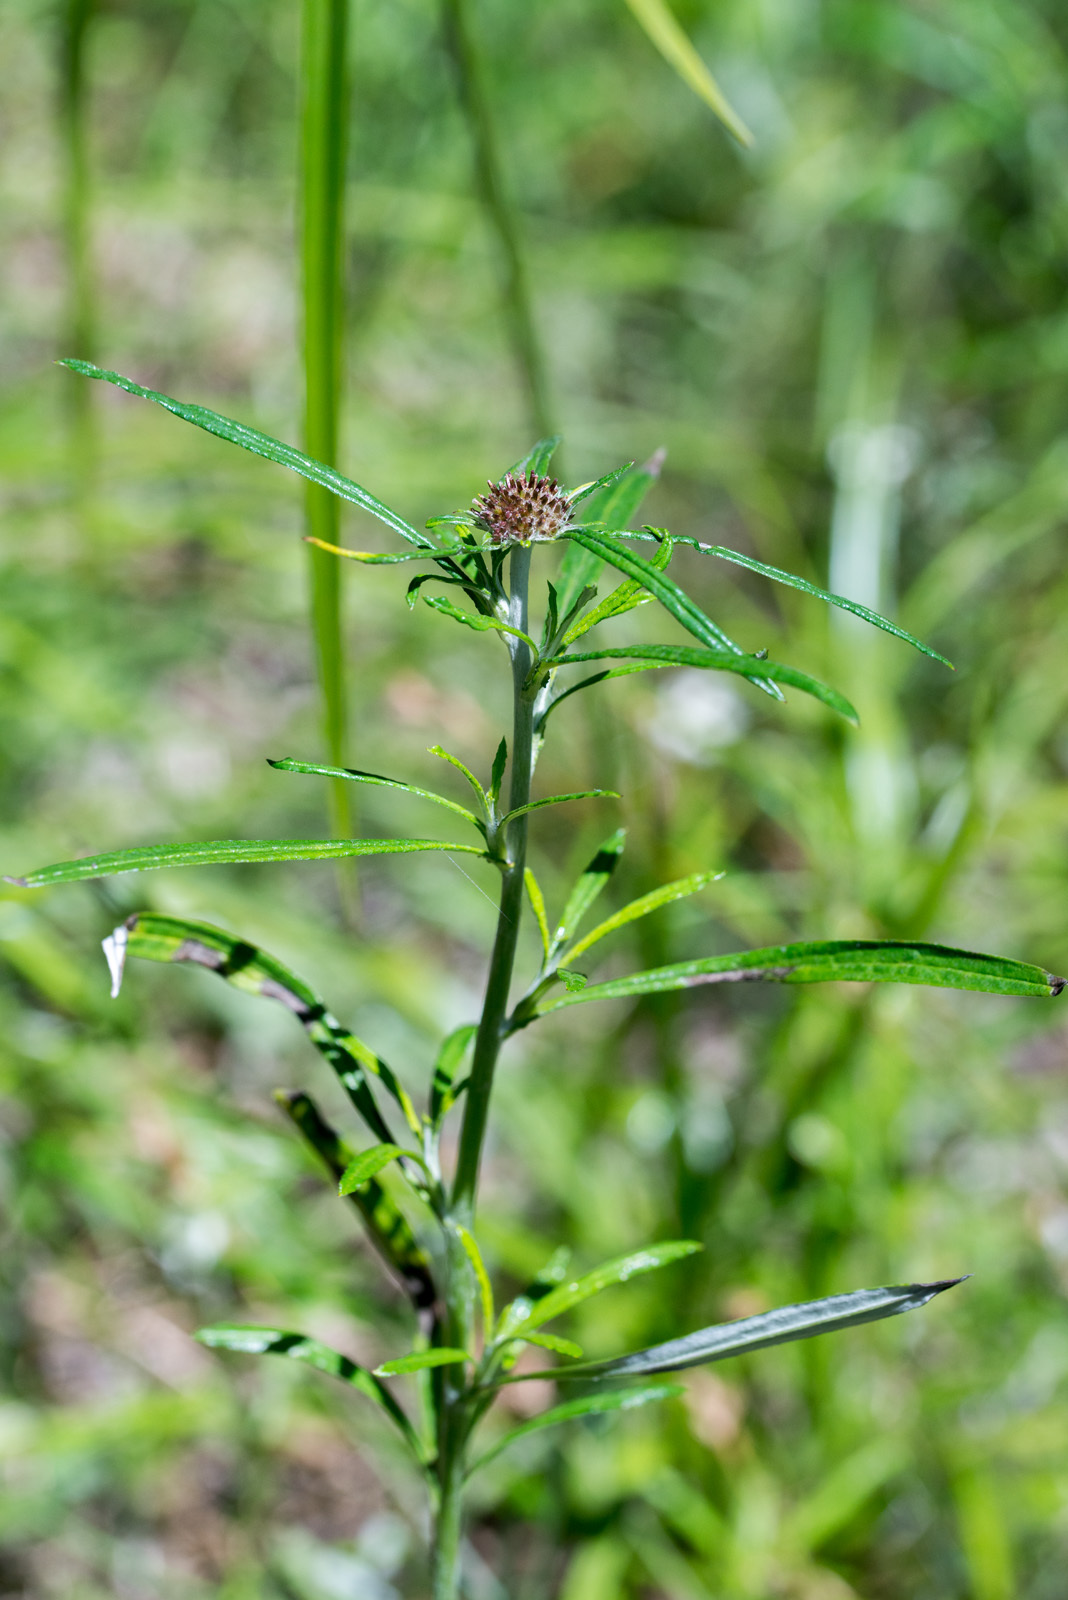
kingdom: Plantae
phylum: Tracheophyta
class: Magnoliopsida
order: Asterales
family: Asteraceae
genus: Euchiton
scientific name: Euchiton sphaericus
